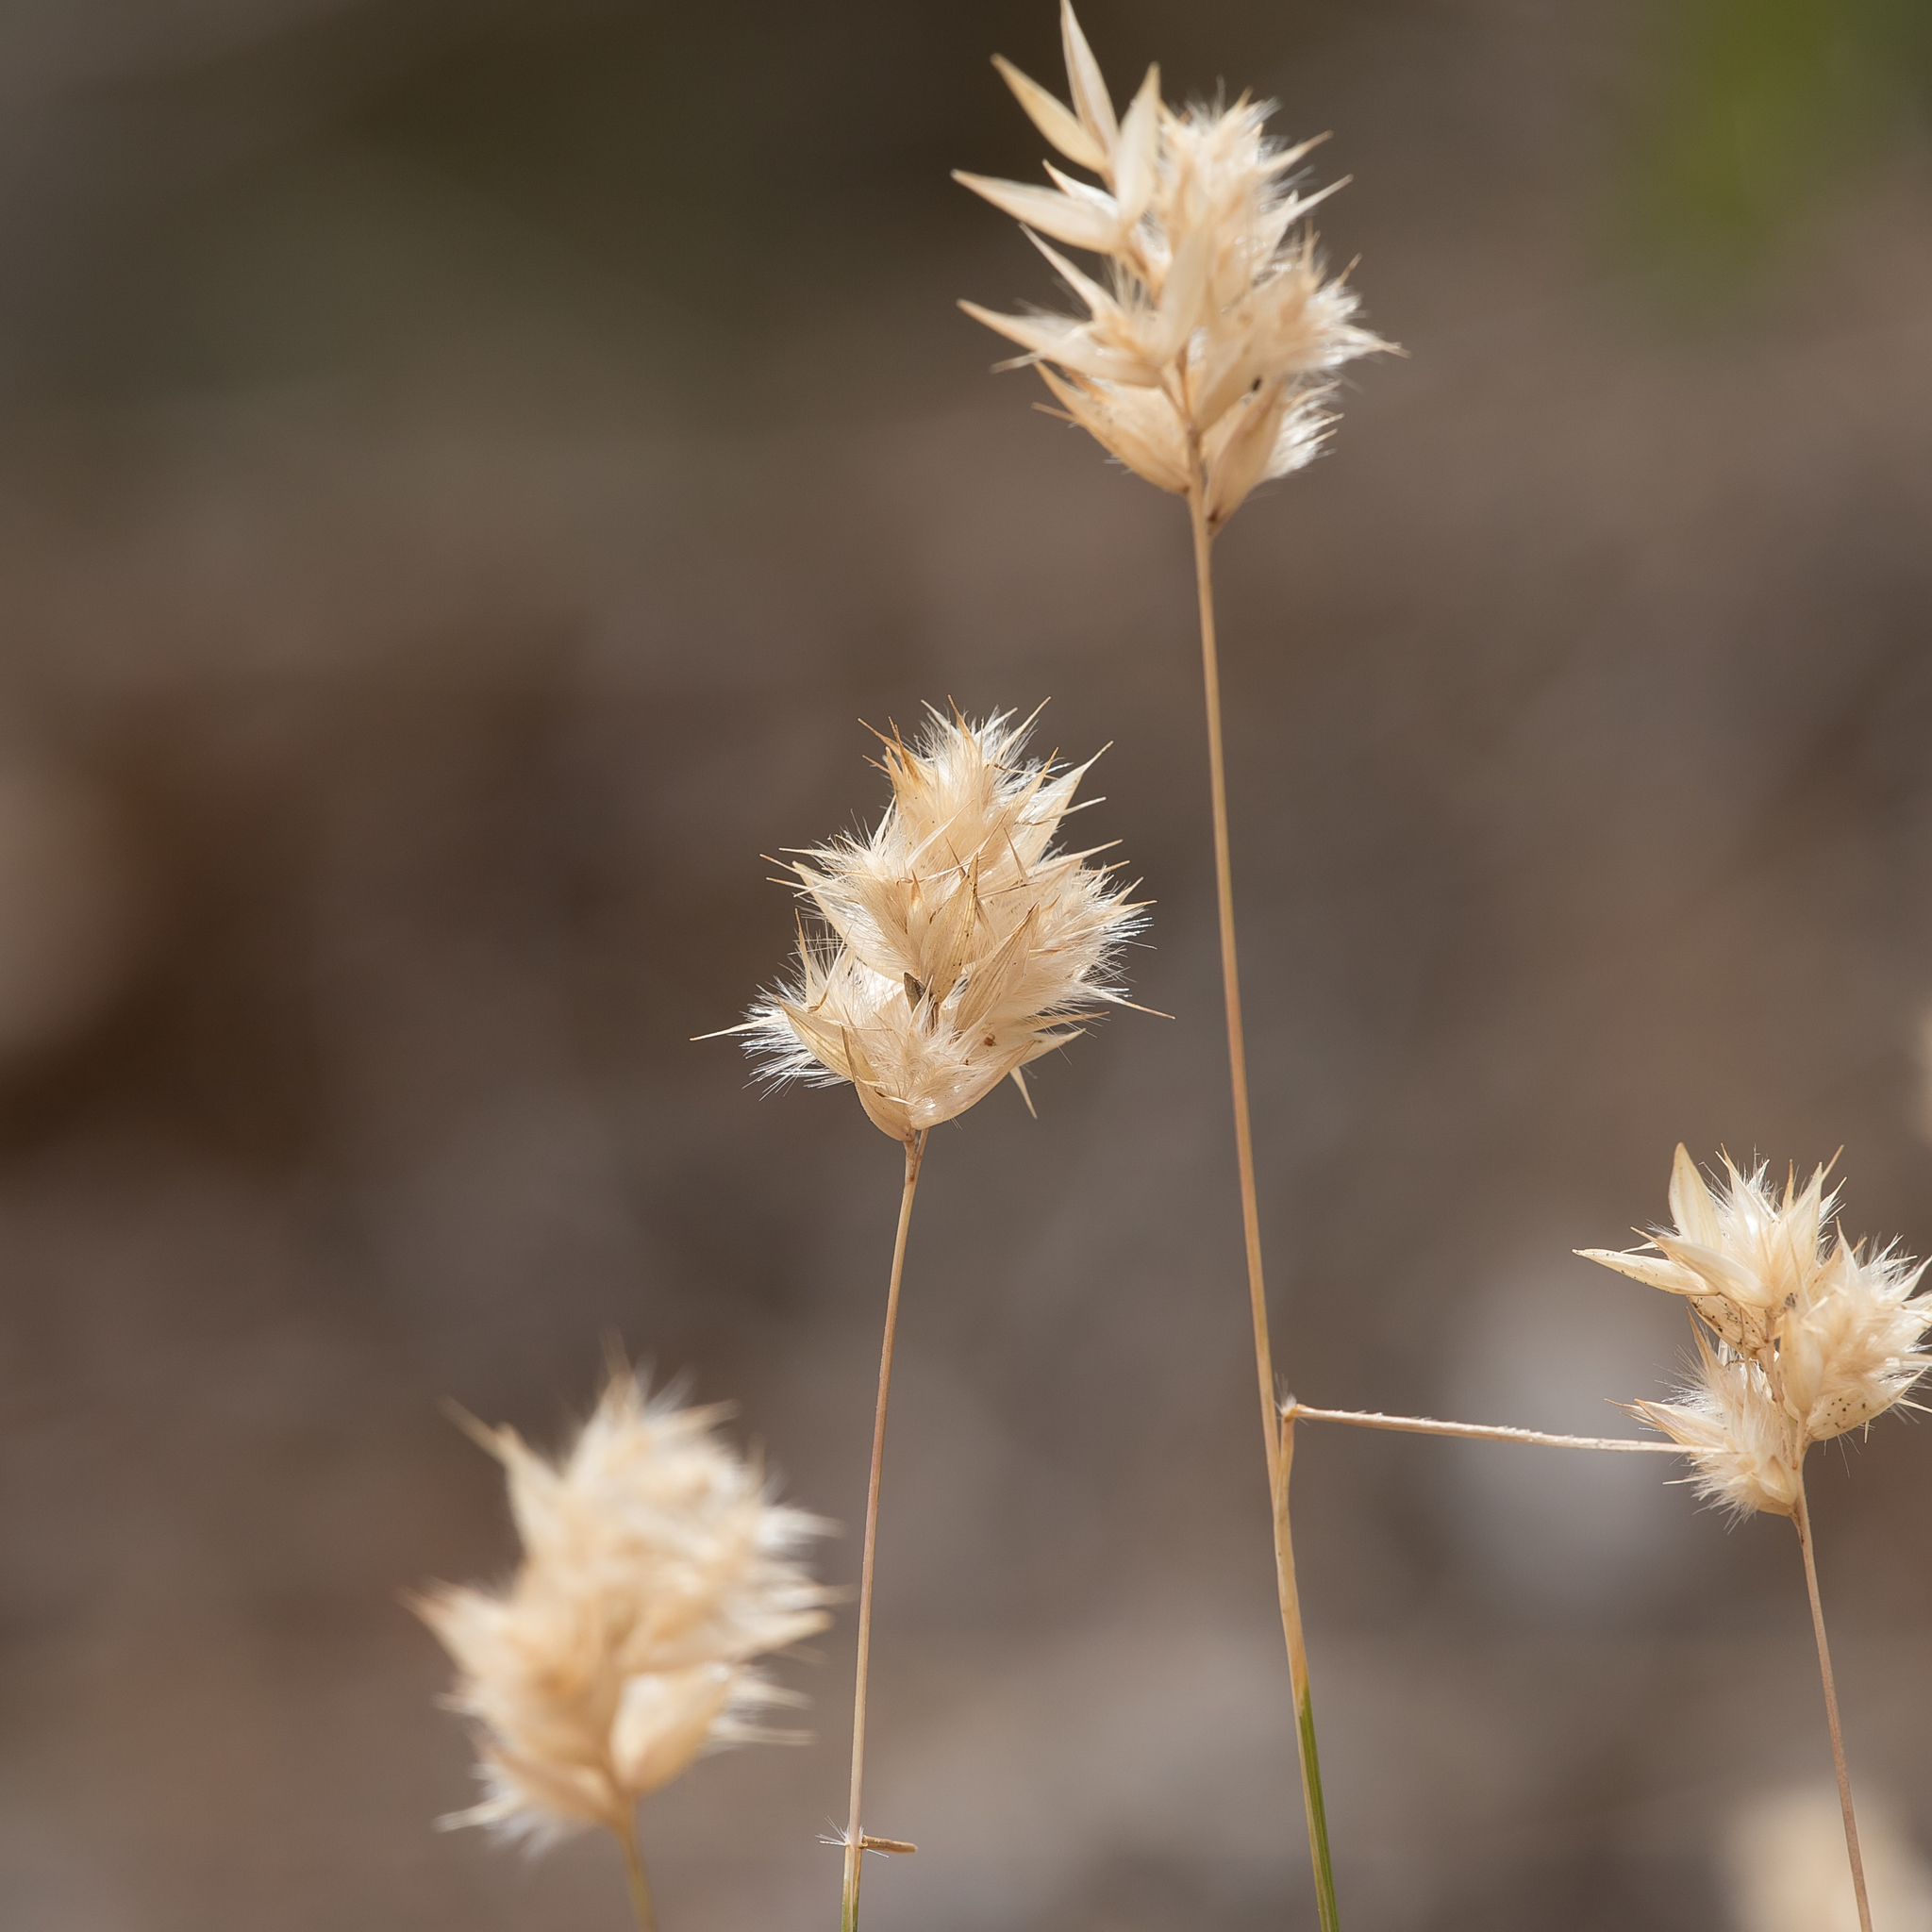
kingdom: Plantae
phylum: Tracheophyta
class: Liliopsida
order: Poales
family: Poaceae
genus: Rytidosperma
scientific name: Rytidosperma geniculatum
